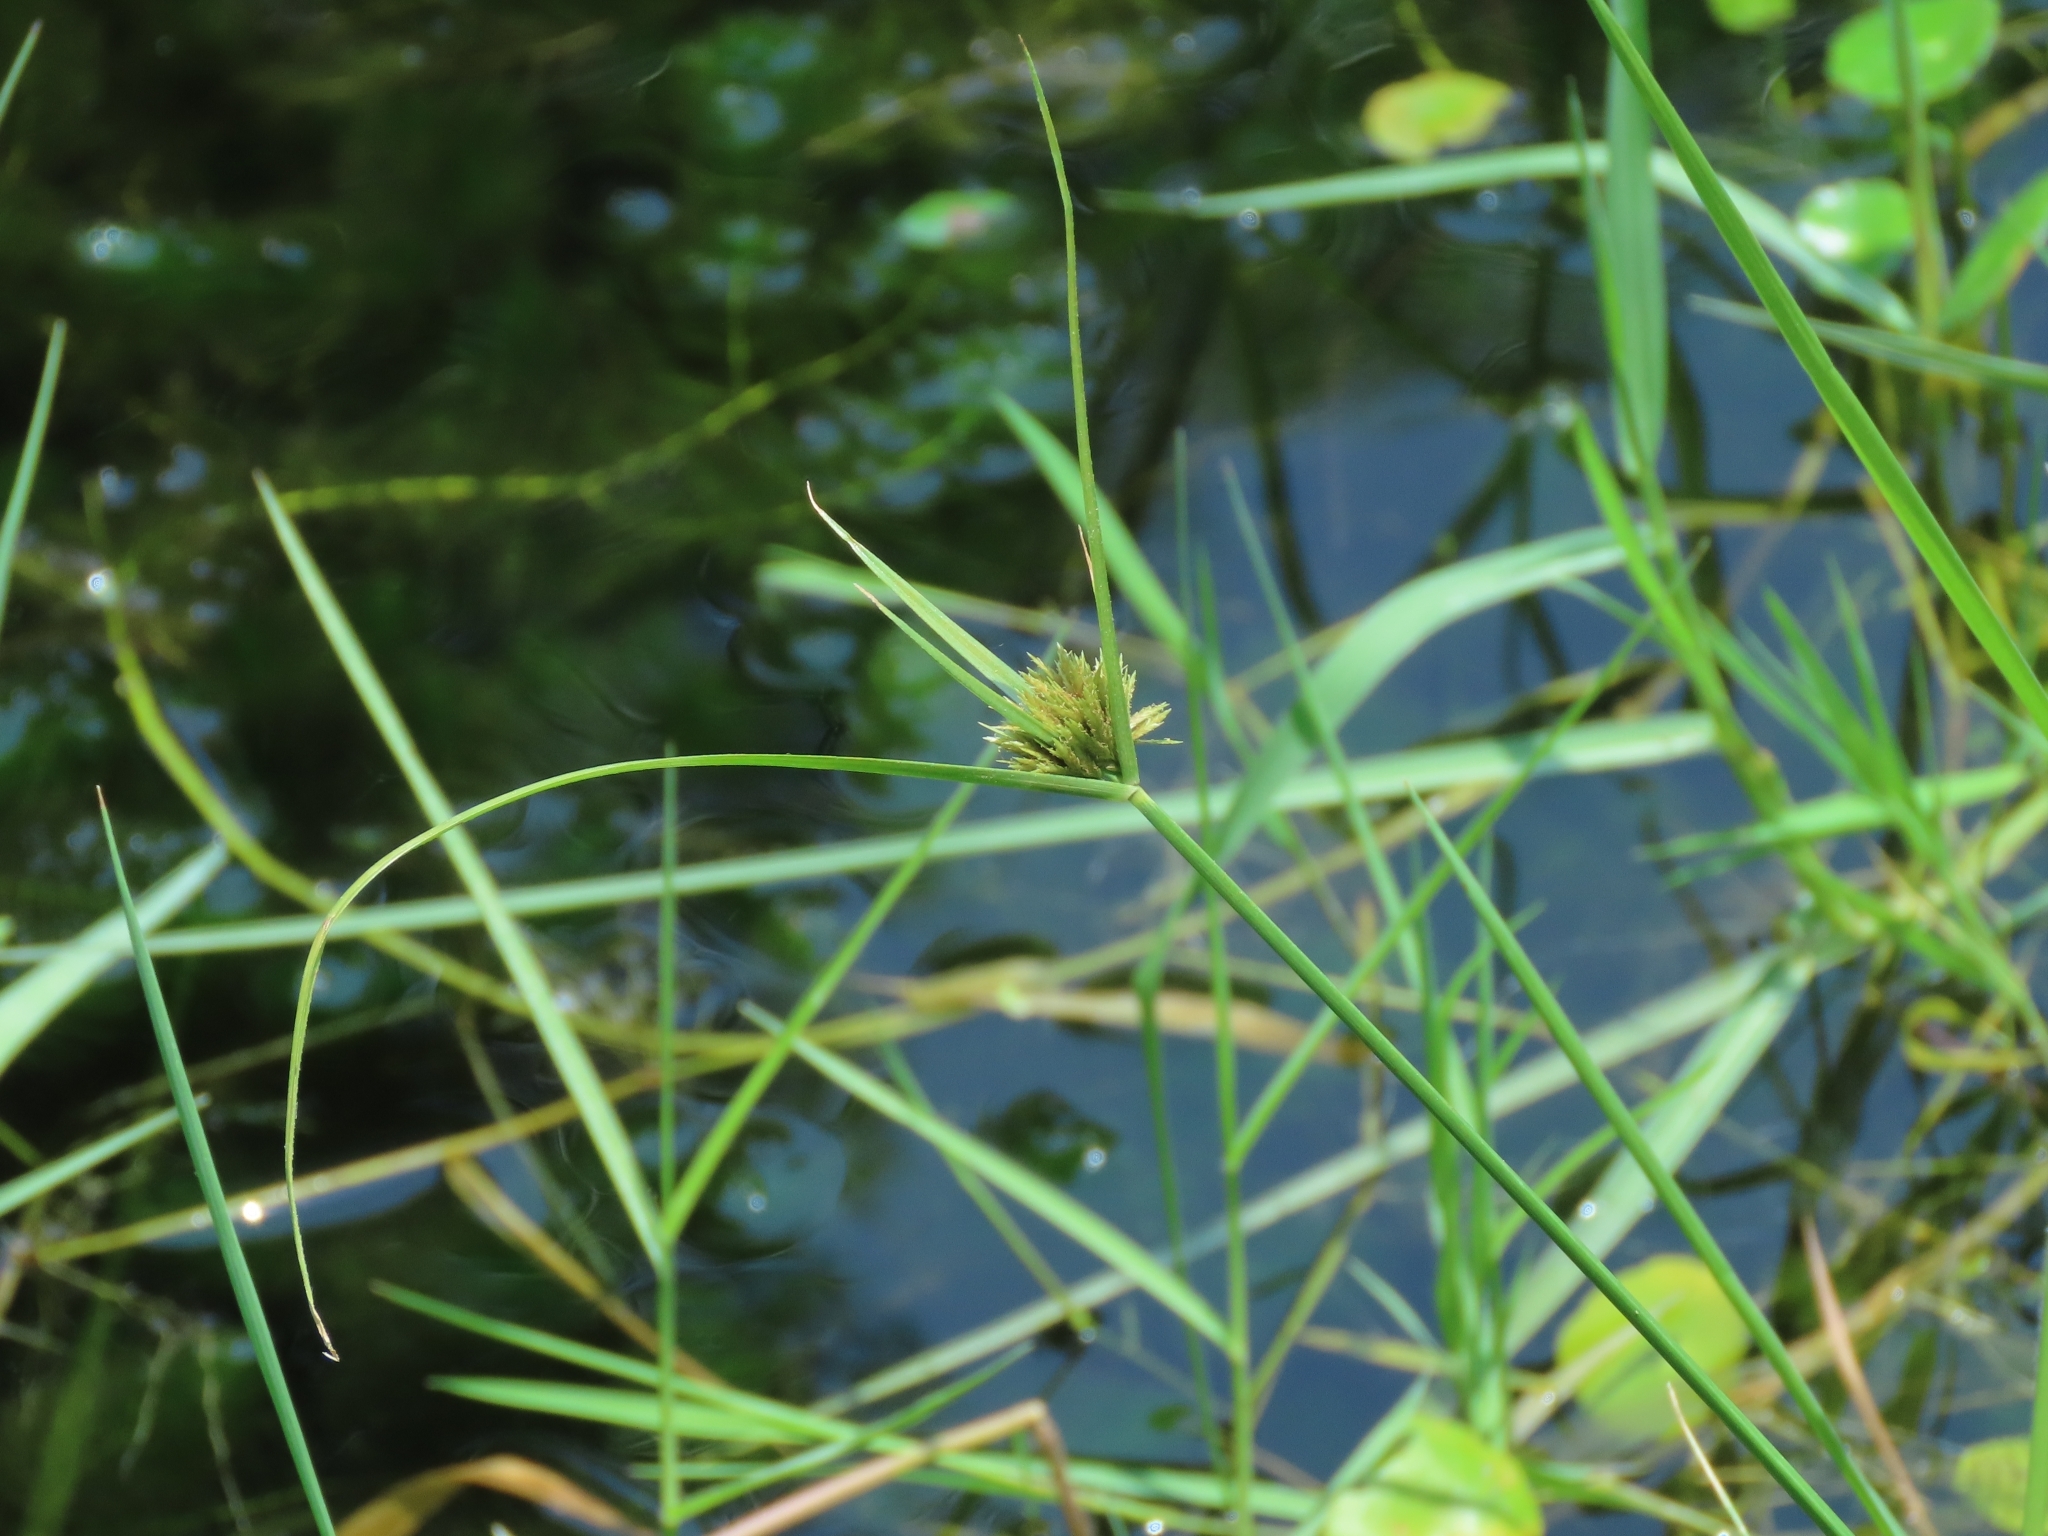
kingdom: Plantae
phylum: Tracheophyta
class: Liliopsida
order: Poales
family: Cyperaceae
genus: Cyperus
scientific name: Cyperus polystachyos
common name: Bunchy flat sedge
